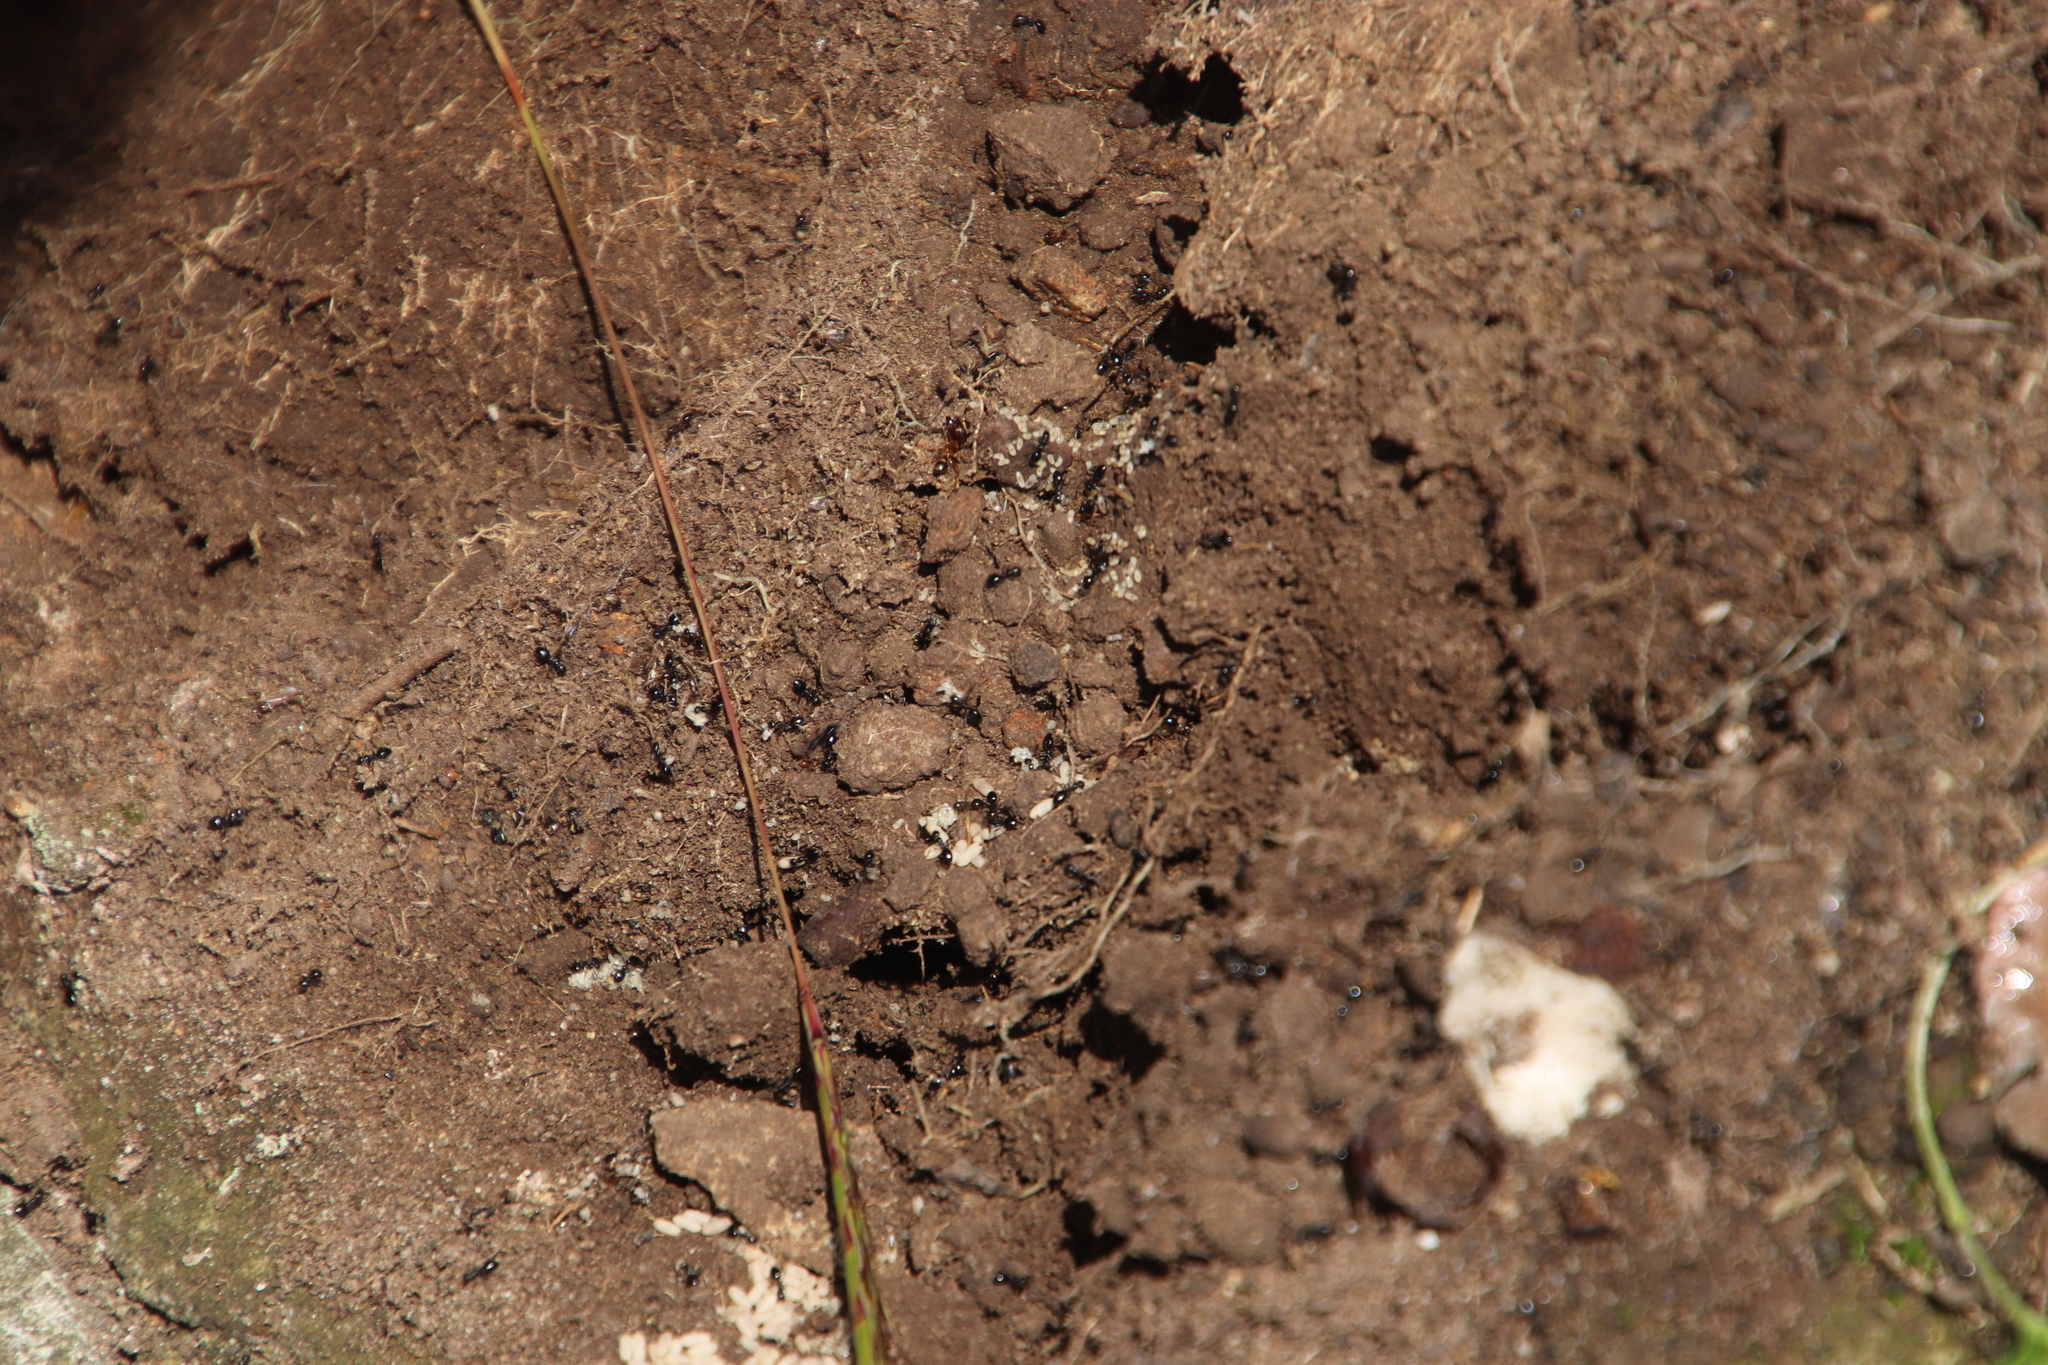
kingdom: Animalia
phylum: Arthropoda
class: Insecta
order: Hymenoptera
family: Formicidae
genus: Lepisiota
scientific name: Lepisiota capensis
